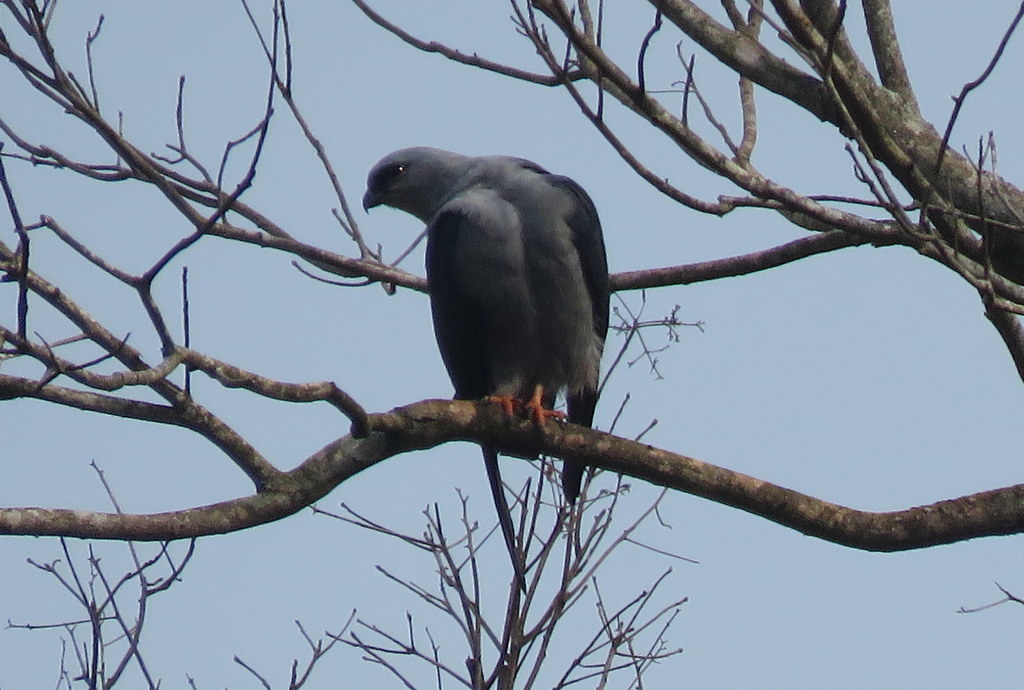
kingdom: Animalia
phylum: Chordata
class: Aves
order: Accipitriformes
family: Accipitridae
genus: Ictinia
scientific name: Ictinia plumbea
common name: Plumbeous kite
